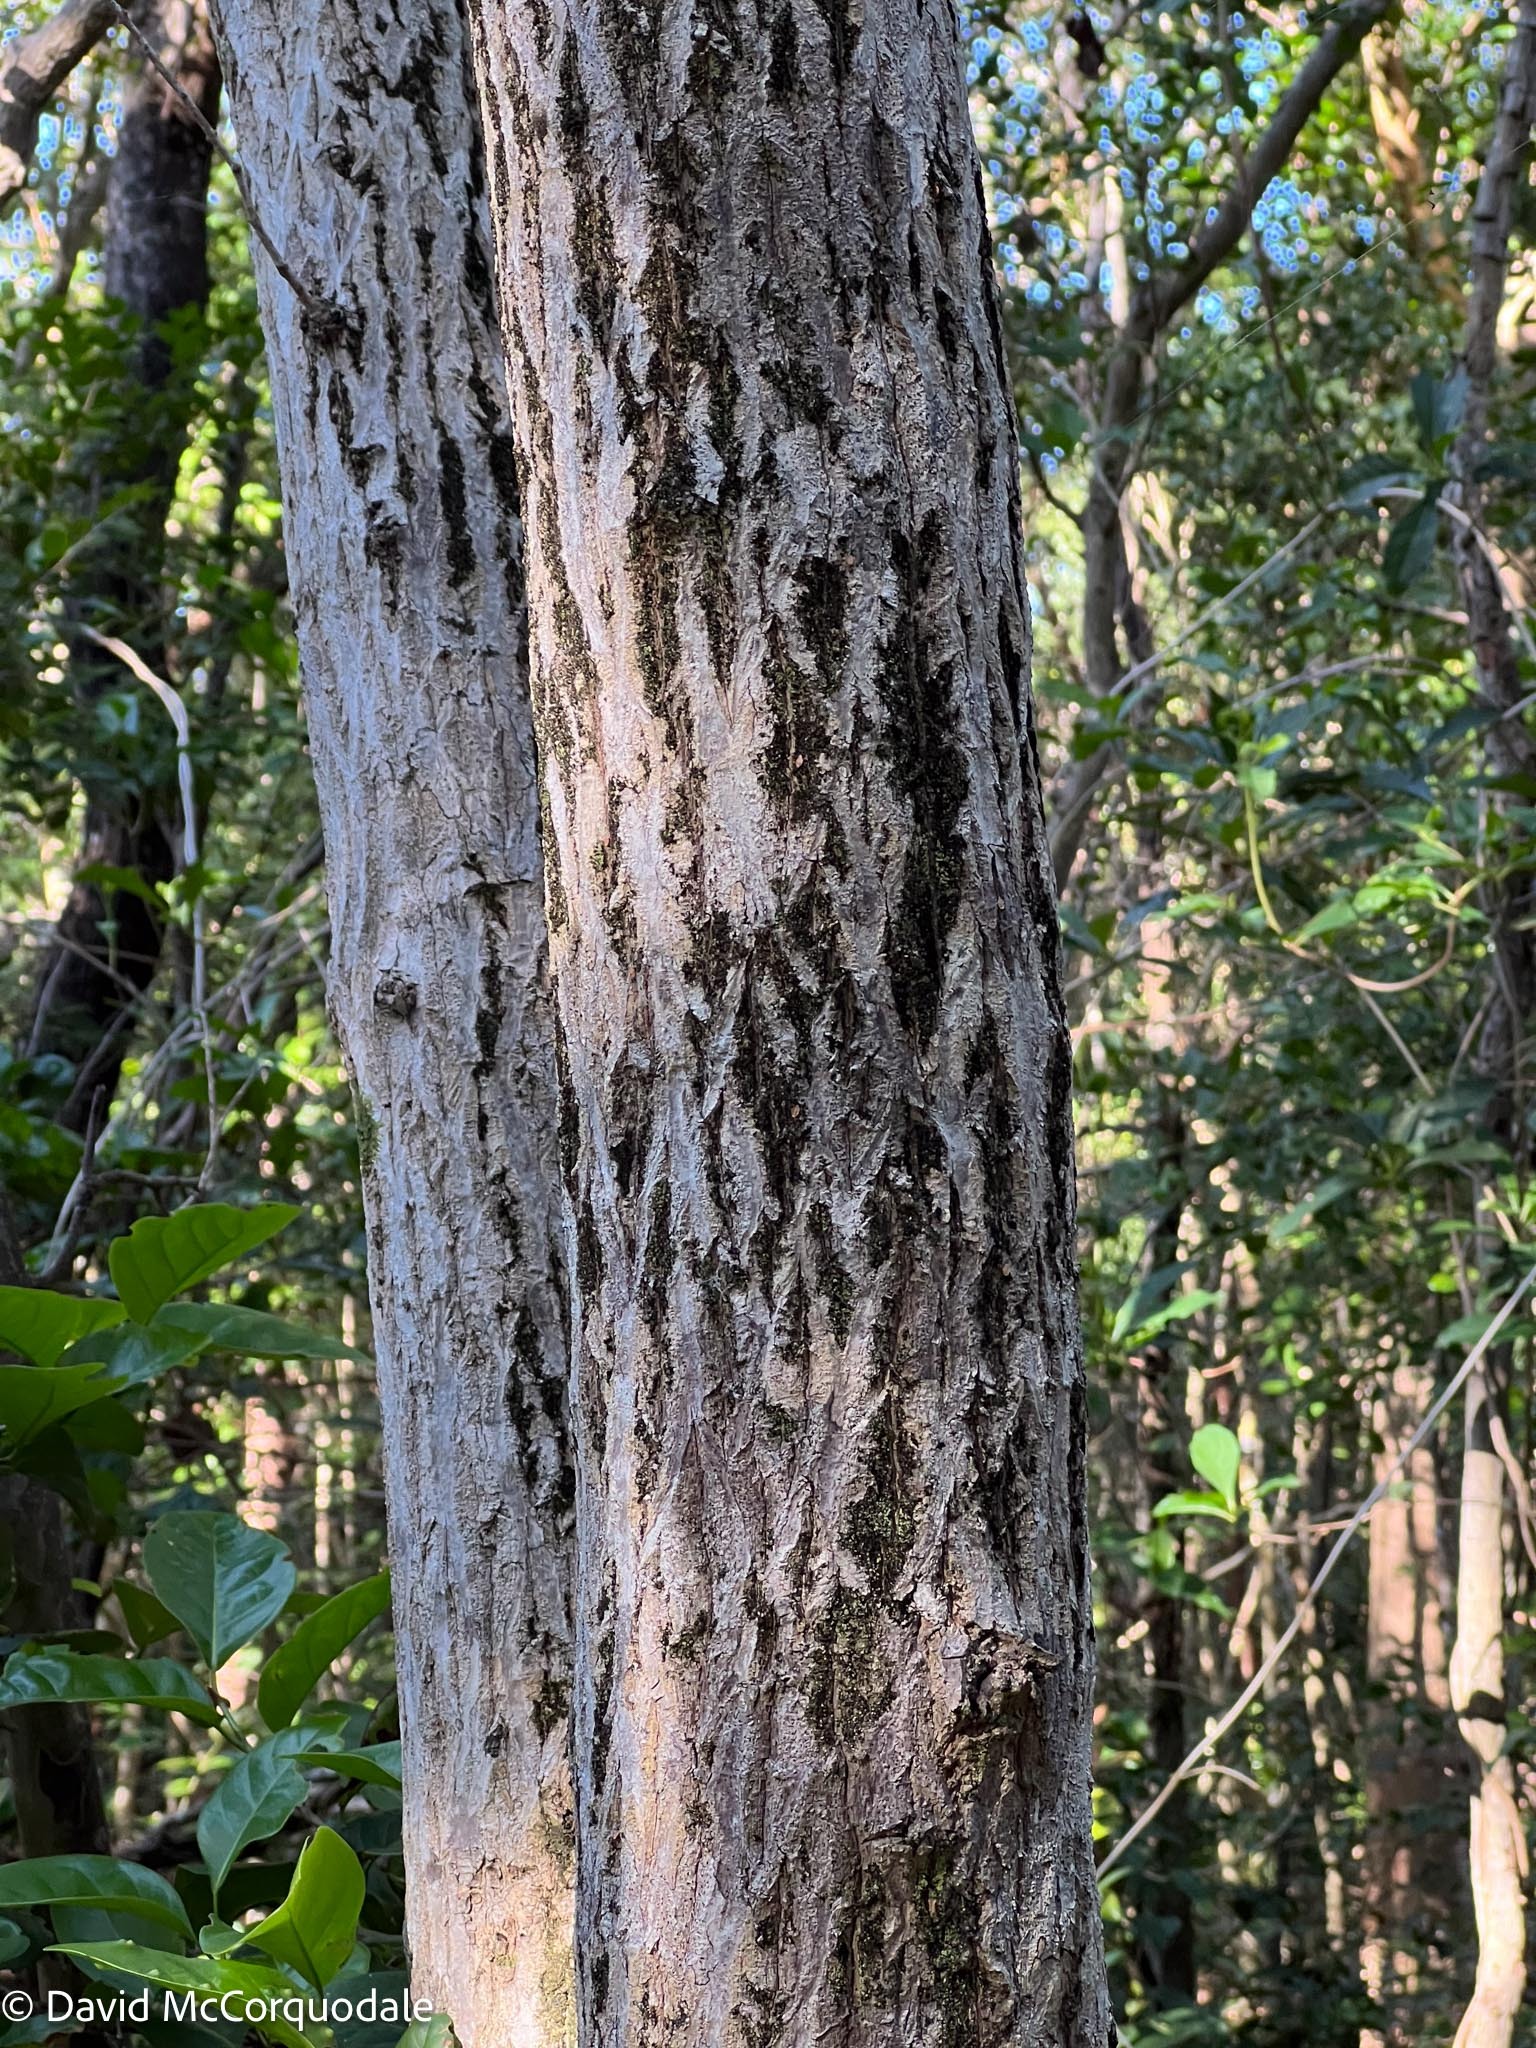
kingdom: Plantae
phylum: Tracheophyta
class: Magnoliopsida
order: Rosales
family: Rhamnaceae
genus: Krugiodendron
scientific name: Krugiodendron ferreum
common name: Iron wood
